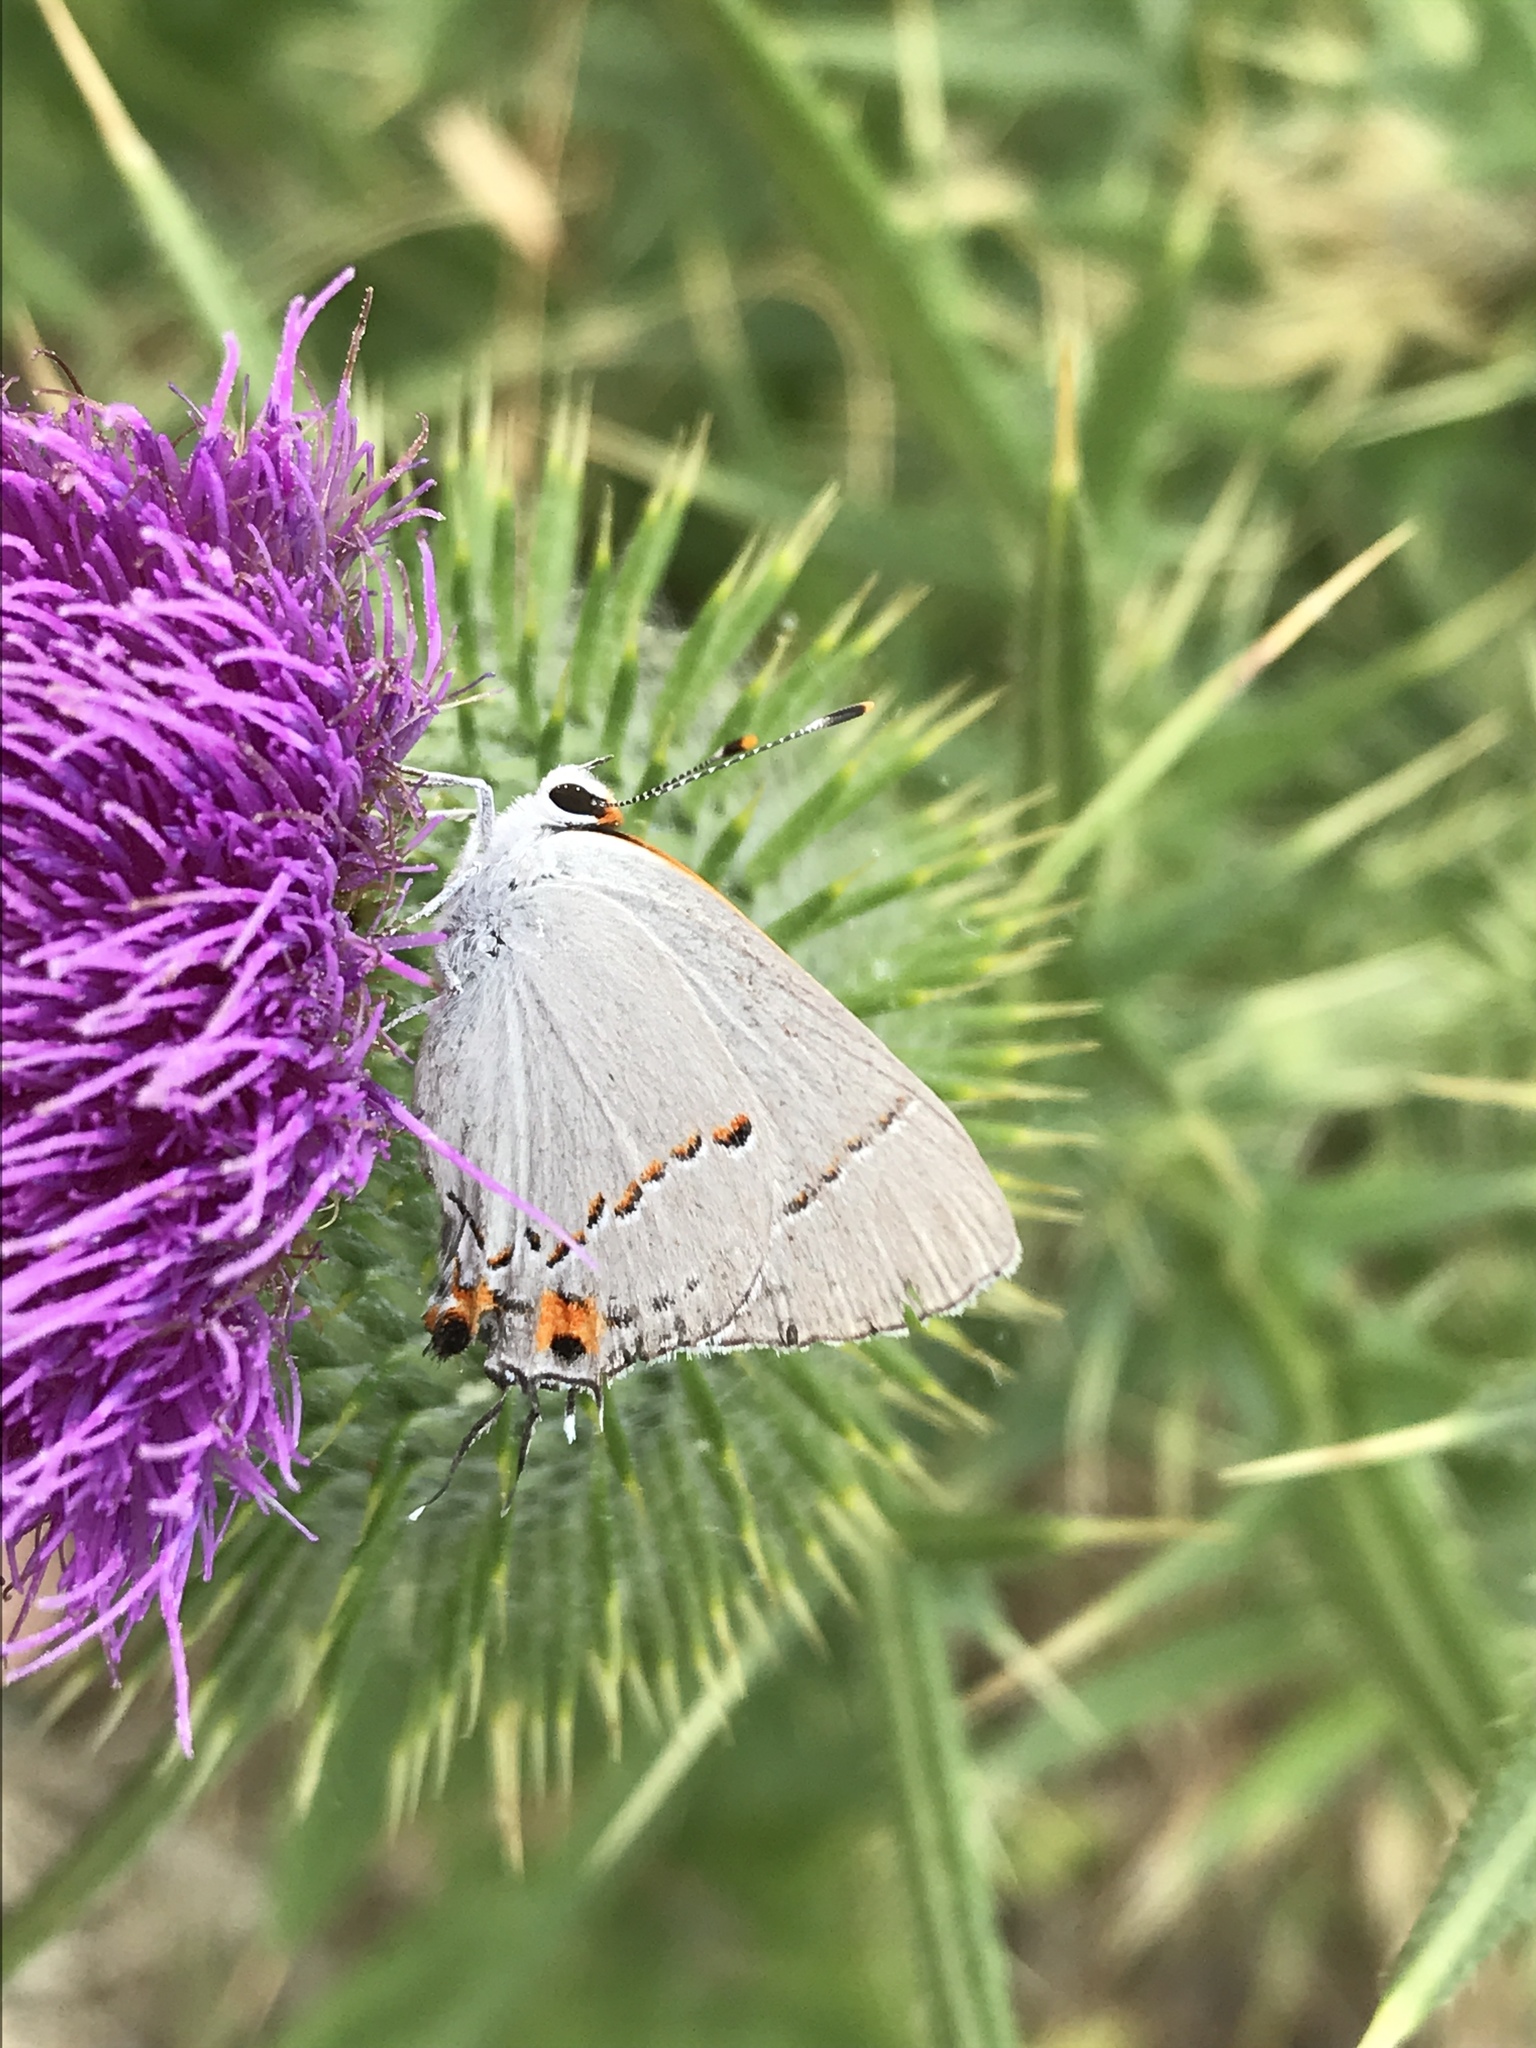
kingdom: Animalia
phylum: Arthropoda
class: Insecta
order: Lepidoptera
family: Lycaenidae
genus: Strymon
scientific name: Strymon melinus
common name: Gray hairstreak
